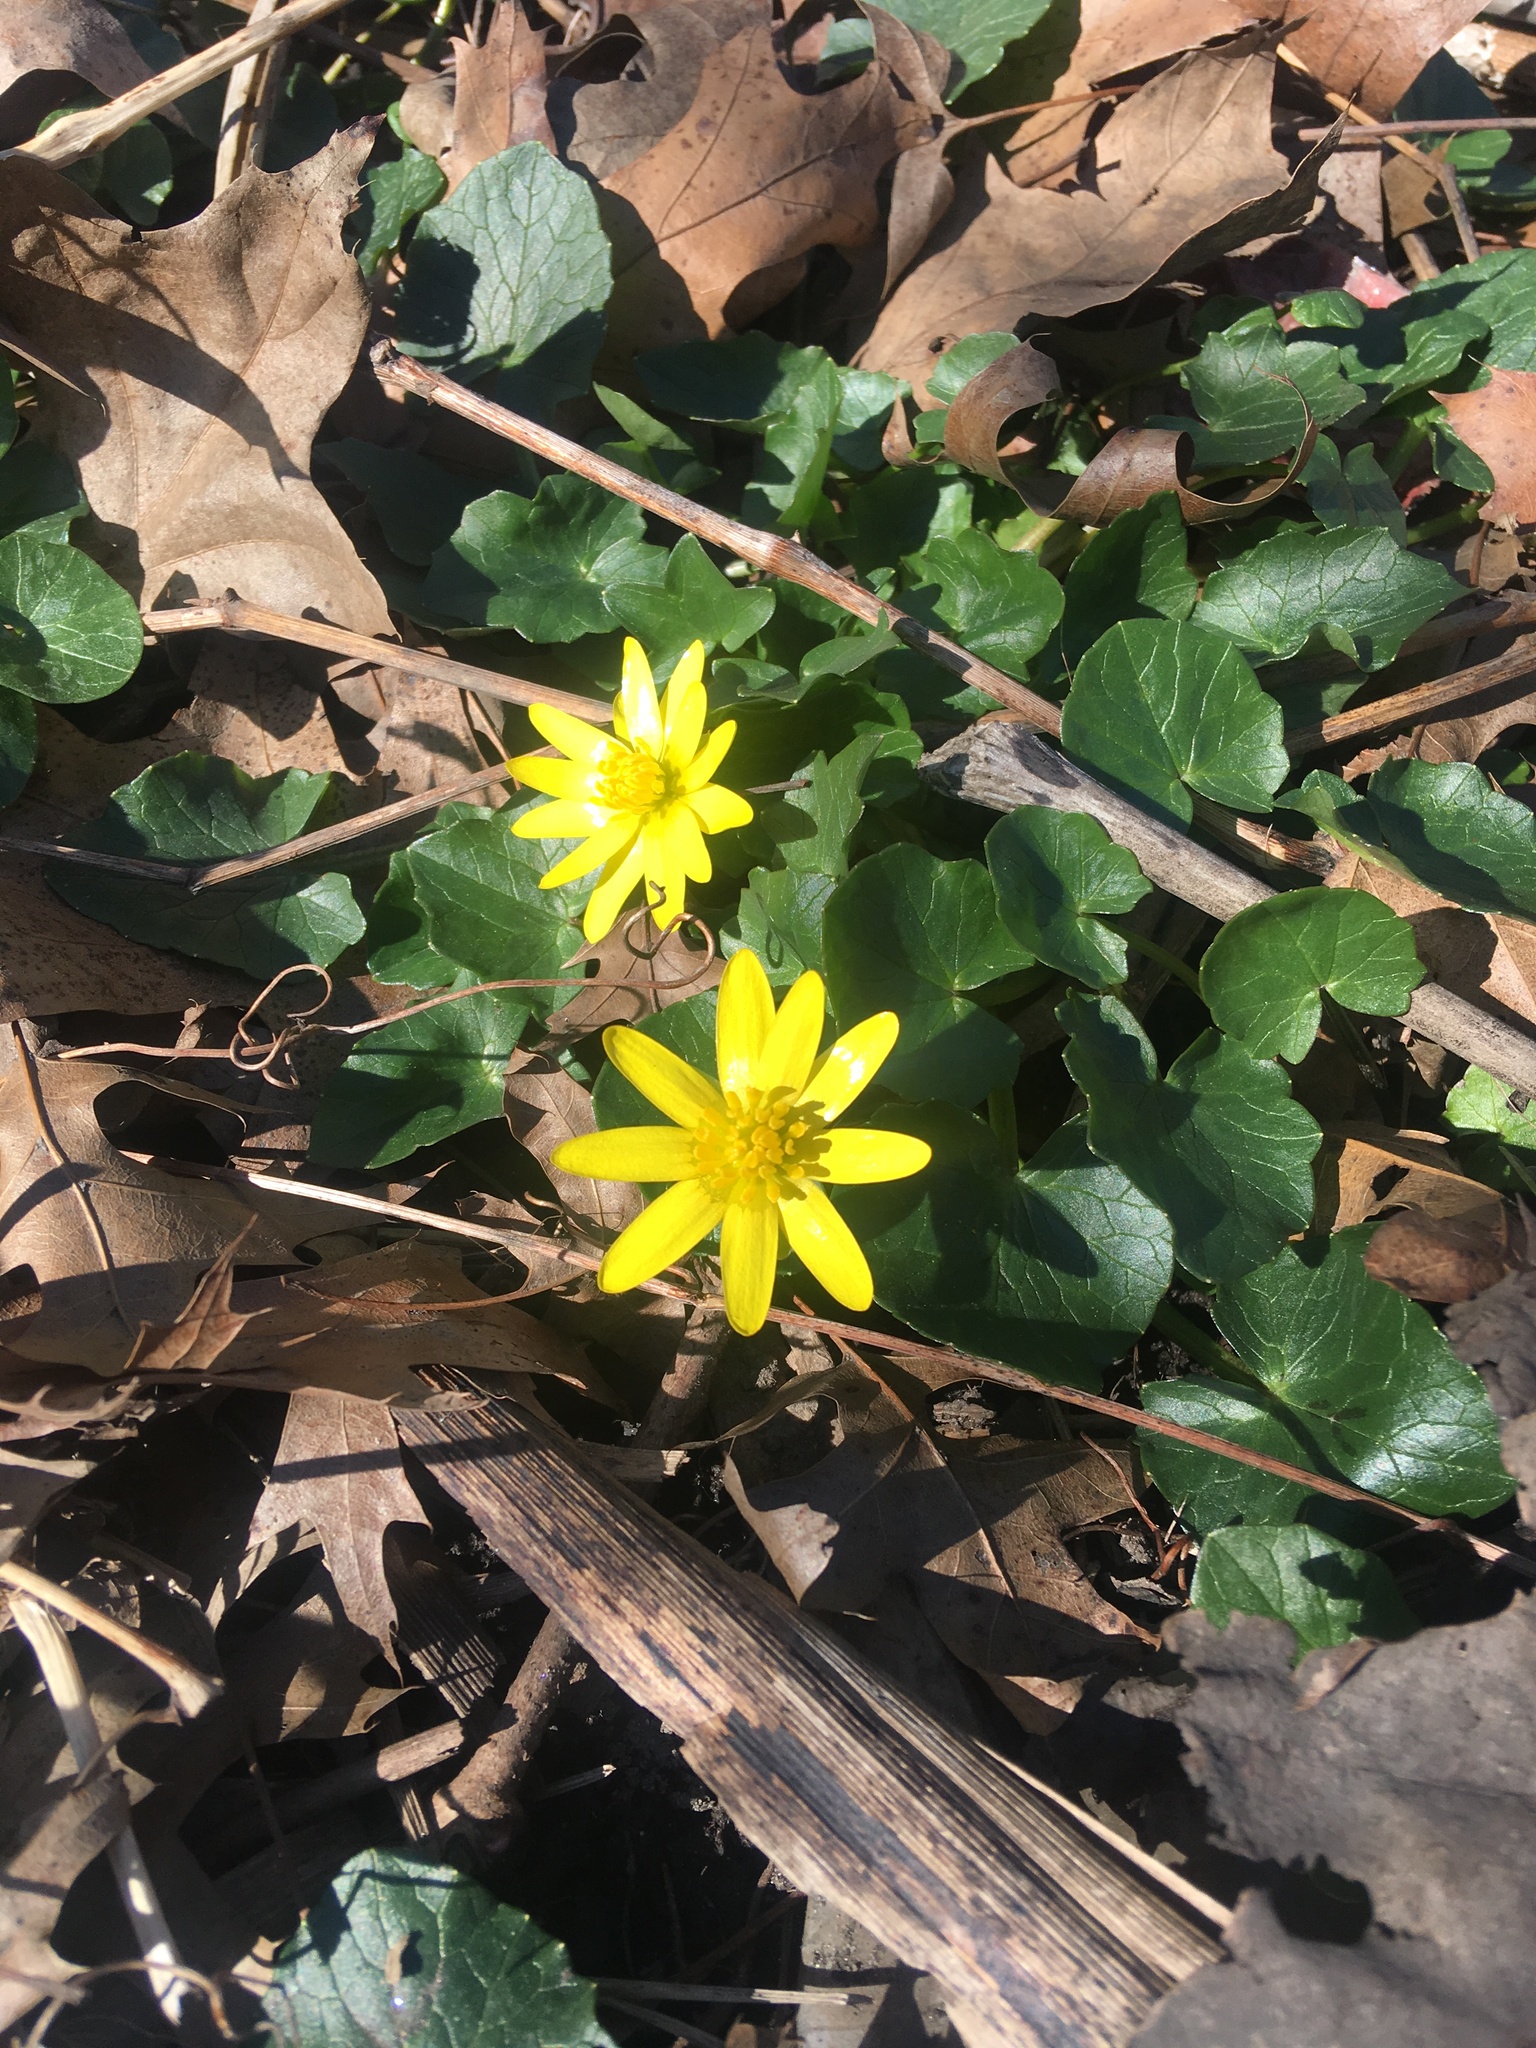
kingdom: Plantae
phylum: Tracheophyta
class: Magnoliopsida
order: Ranunculales
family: Ranunculaceae
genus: Ficaria
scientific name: Ficaria verna
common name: Lesser celandine
